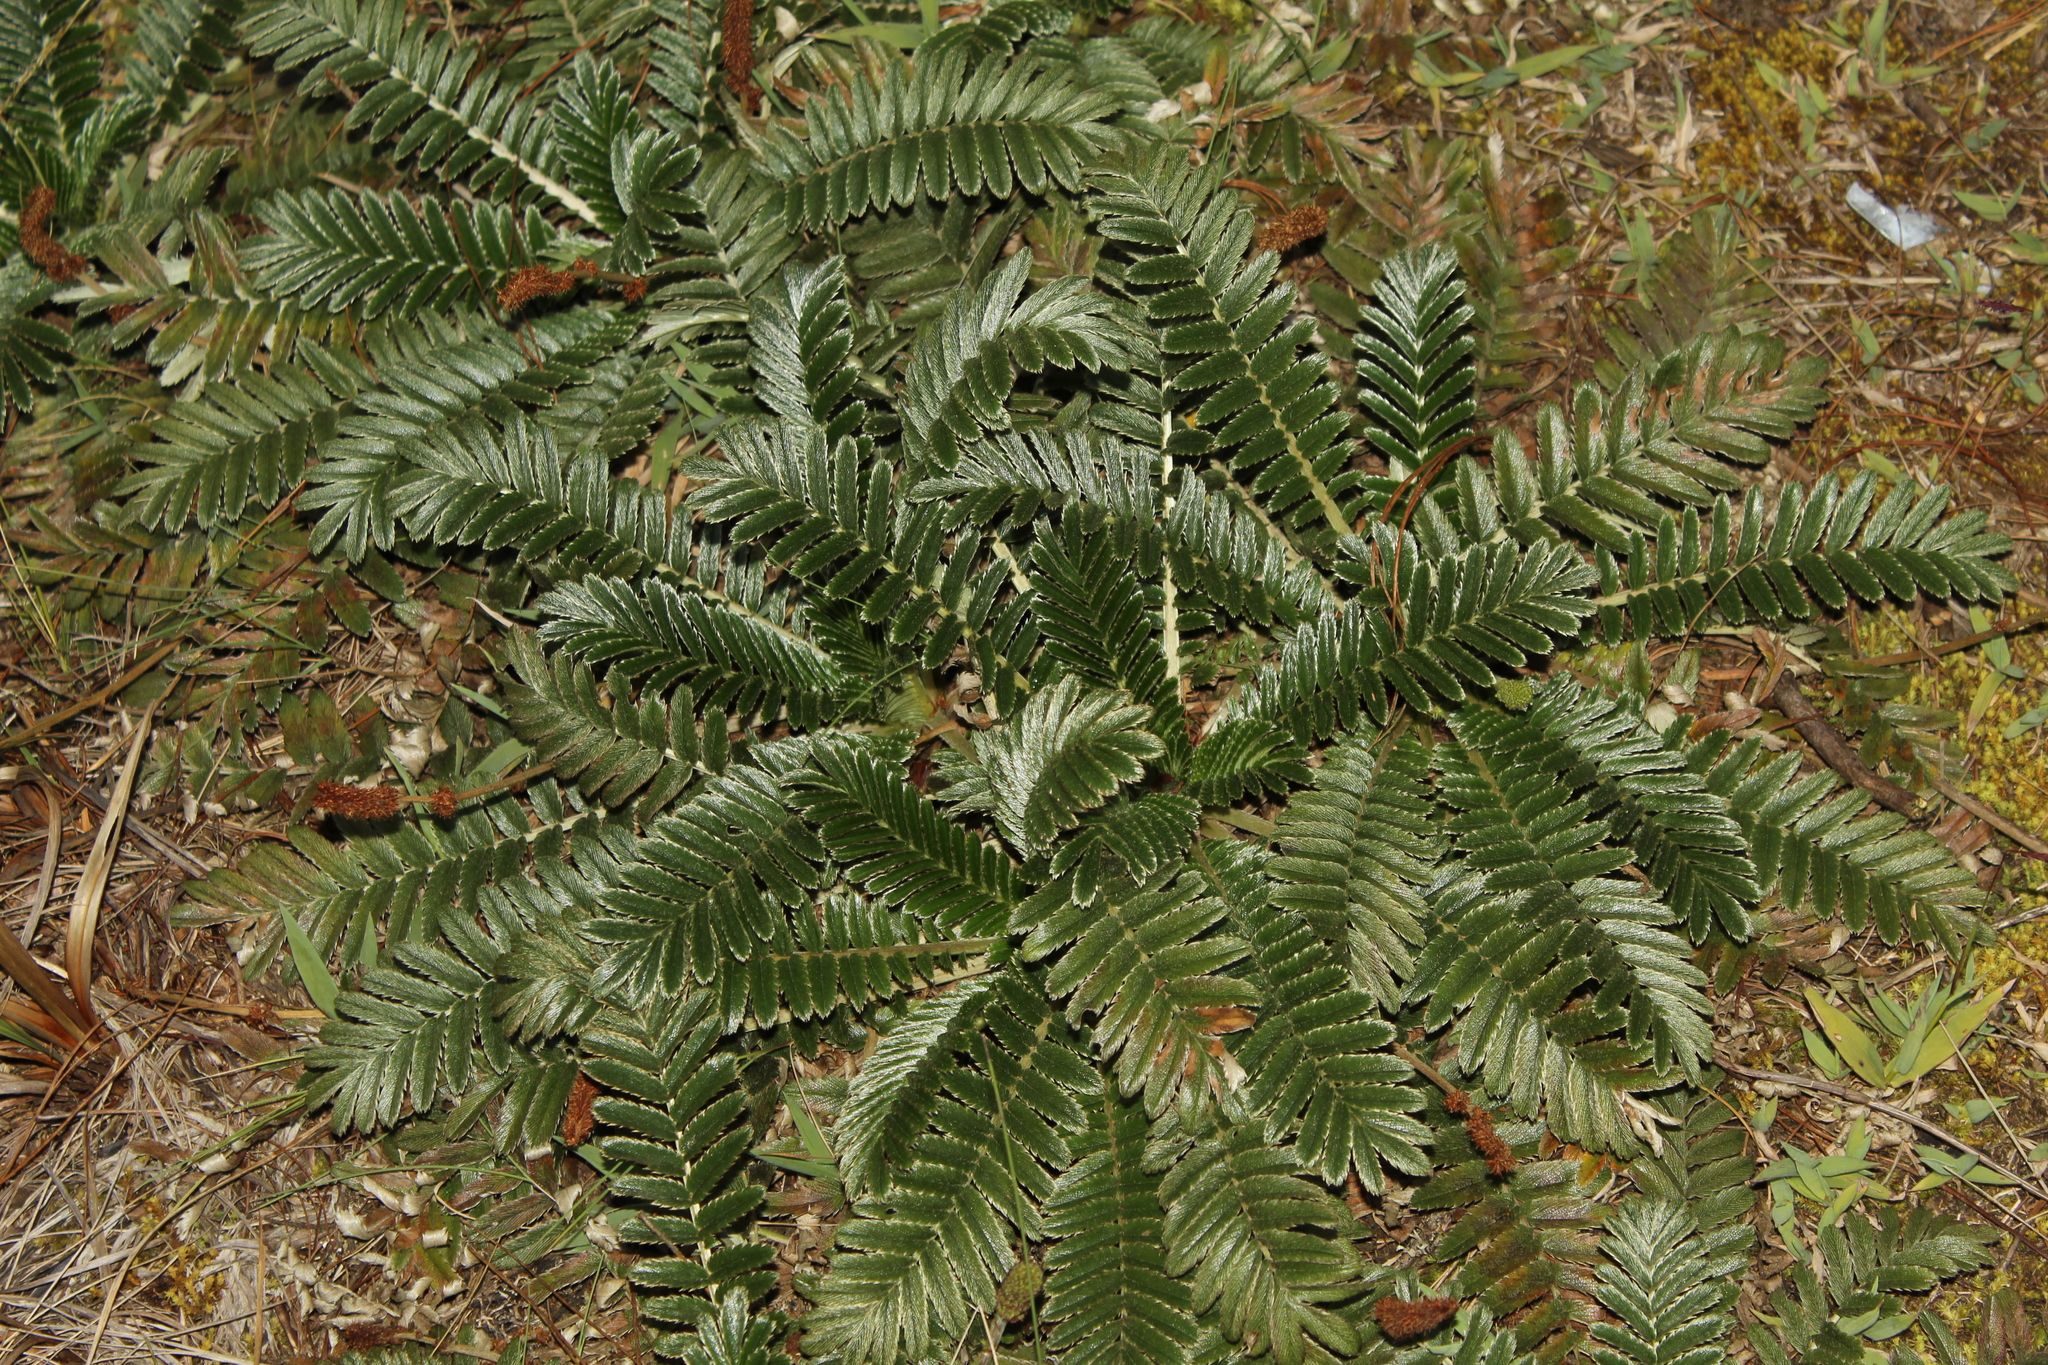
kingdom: Plantae
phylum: Tracheophyta
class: Magnoliopsida
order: Rosales
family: Rosaceae
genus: Acaena
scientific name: Acaena cylindristachya
